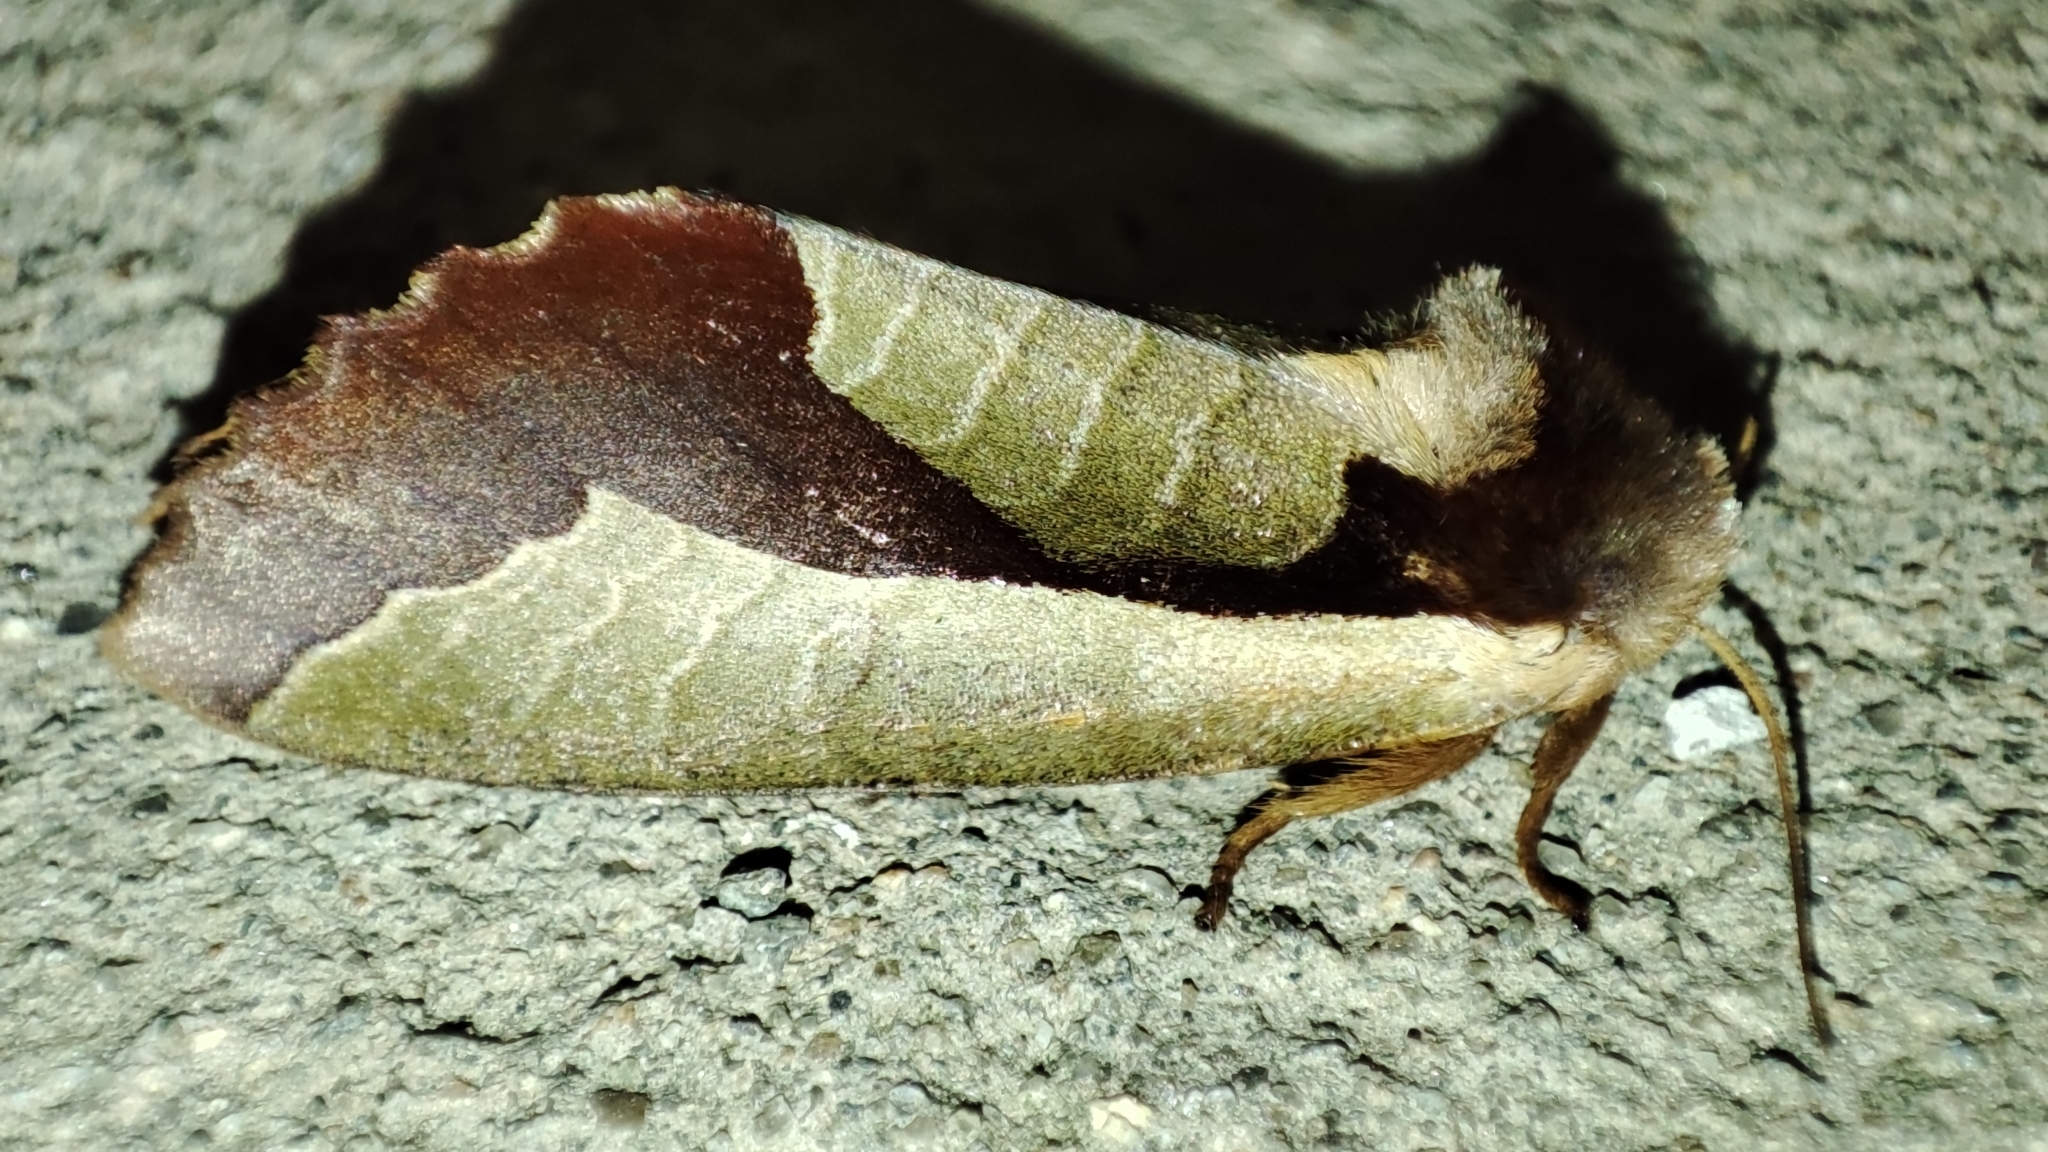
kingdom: Animalia
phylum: Arthropoda
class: Insecta
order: Lepidoptera
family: Notodontidae
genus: Uropyia
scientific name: Uropyia meticulodina
